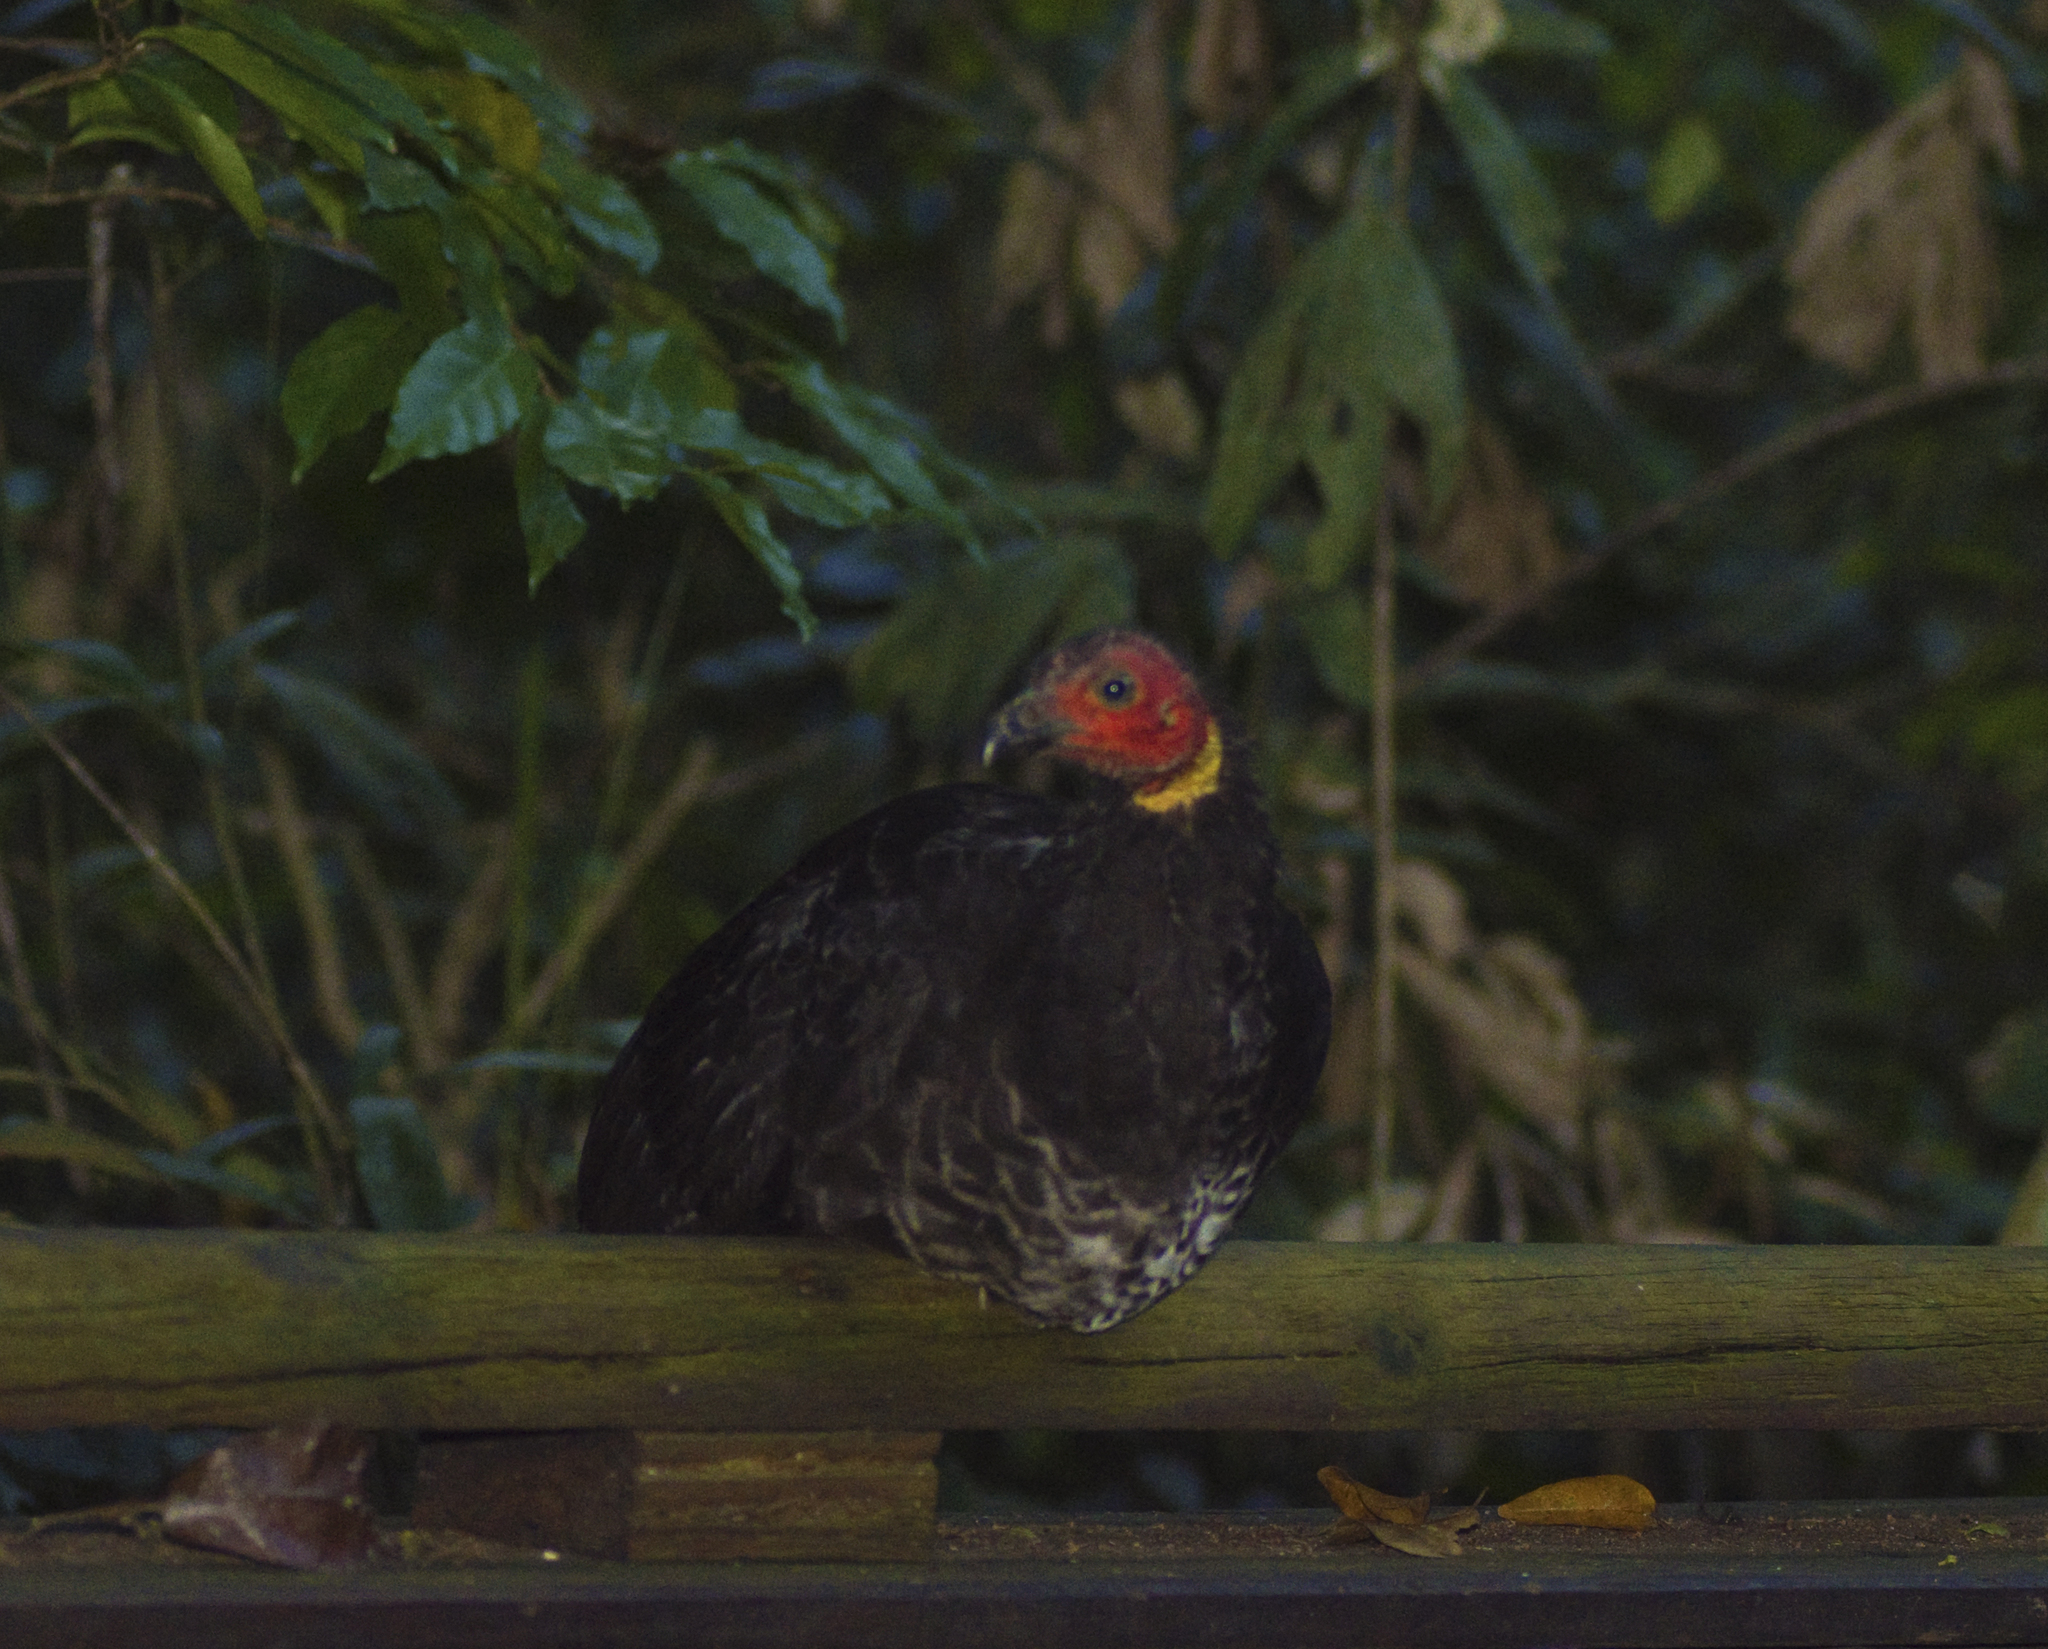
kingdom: Animalia
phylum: Chordata
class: Aves
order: Galliformes
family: Megapodiidae
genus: Alectura
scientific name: Alectura lathami
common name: Australian brushturkey
